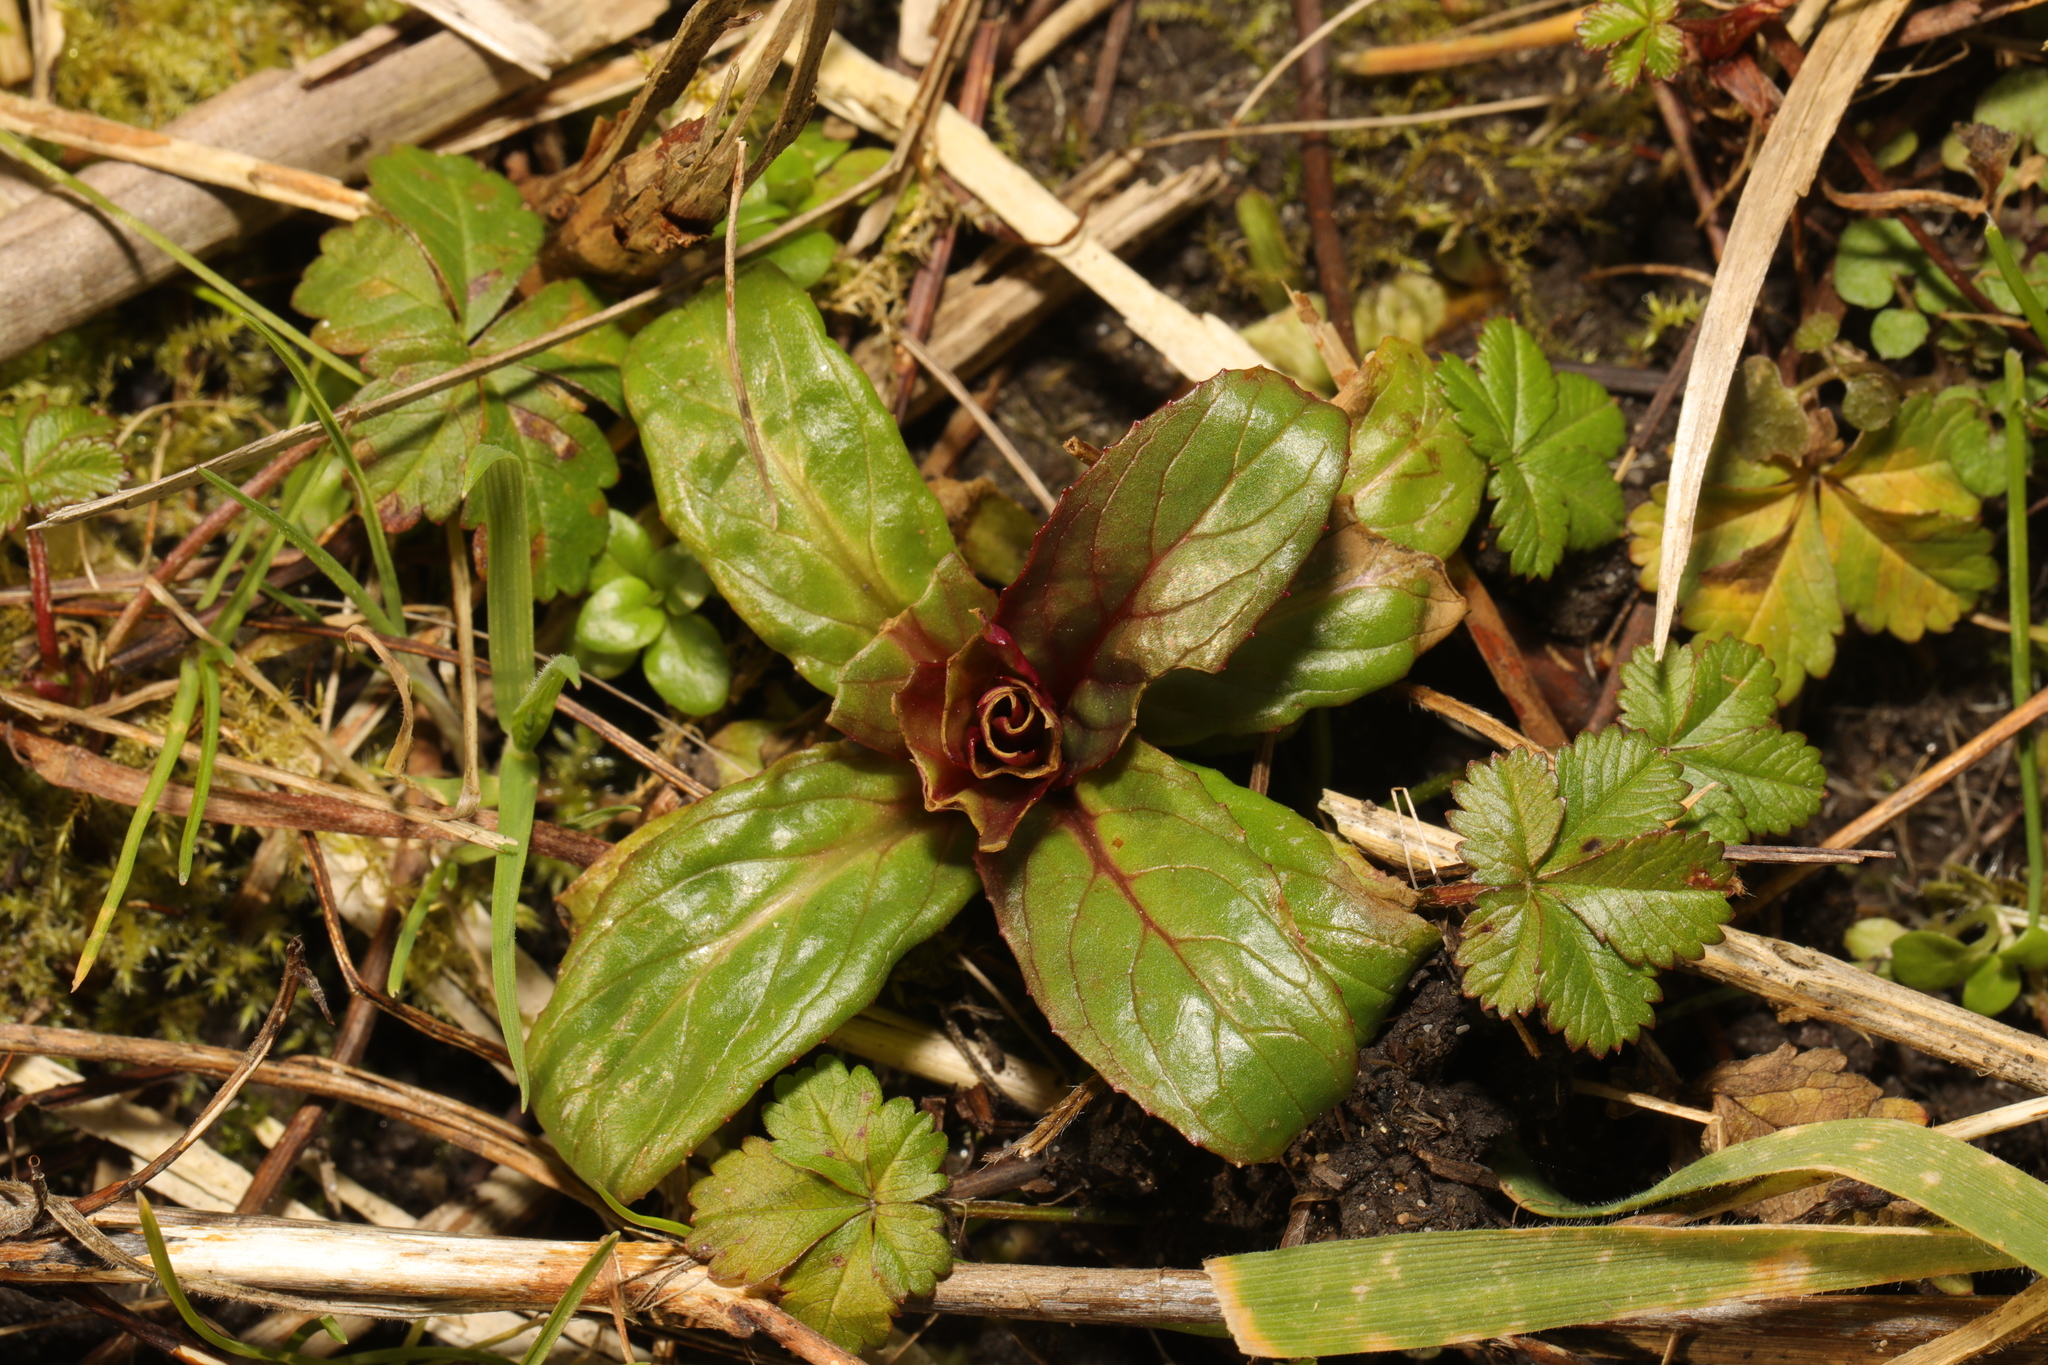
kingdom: Plantae
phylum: Tracheophyta
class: Magnoliopsida
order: Myrtales
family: Onagraceae
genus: Epilobium
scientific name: Epilobium hirsutum
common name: Great willowherb
